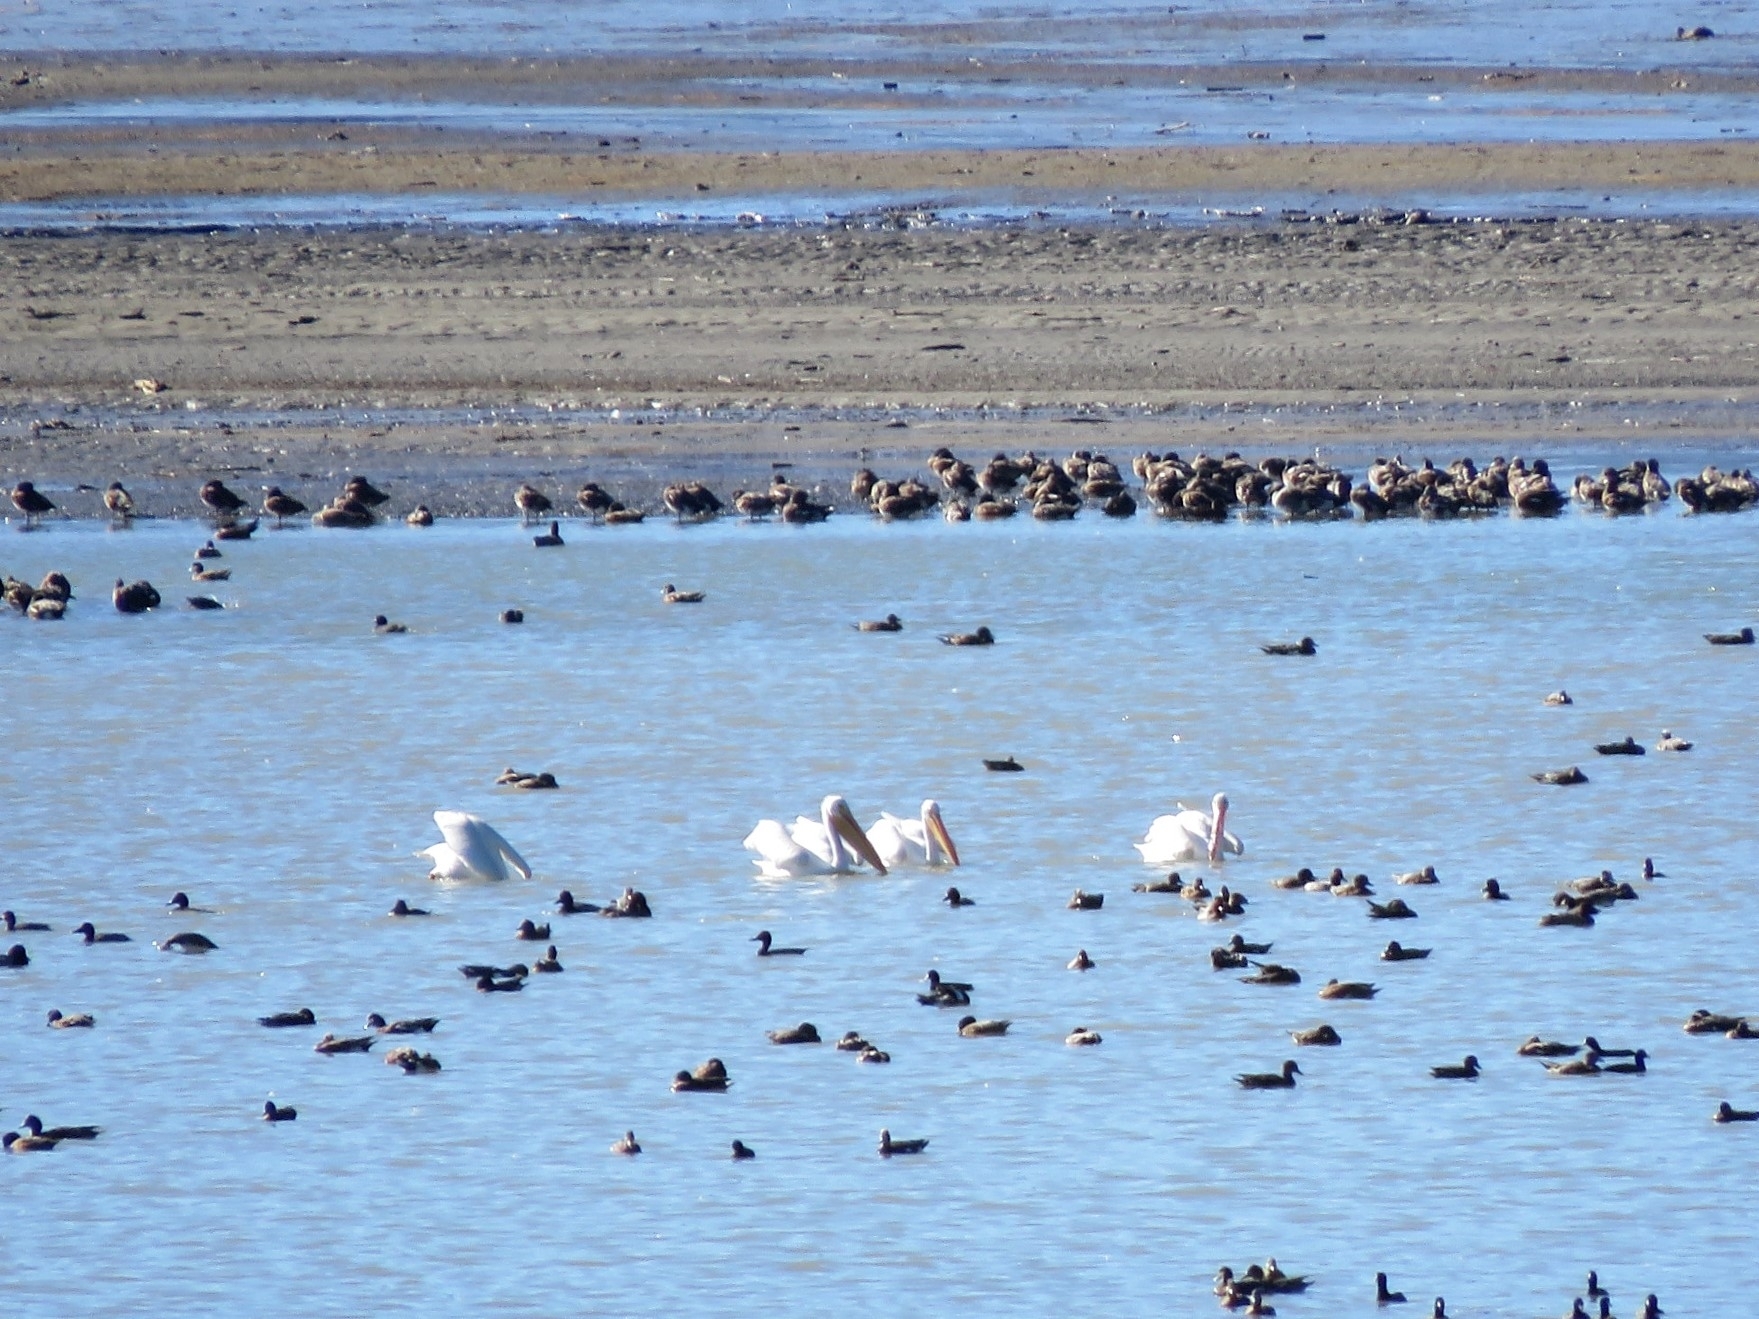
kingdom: Animalia
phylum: Chordata
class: Aves
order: Pelecaniformes
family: Pelecanidae
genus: Pelecanus
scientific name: Pelecanus erythrorhynchos
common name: American white pelican
